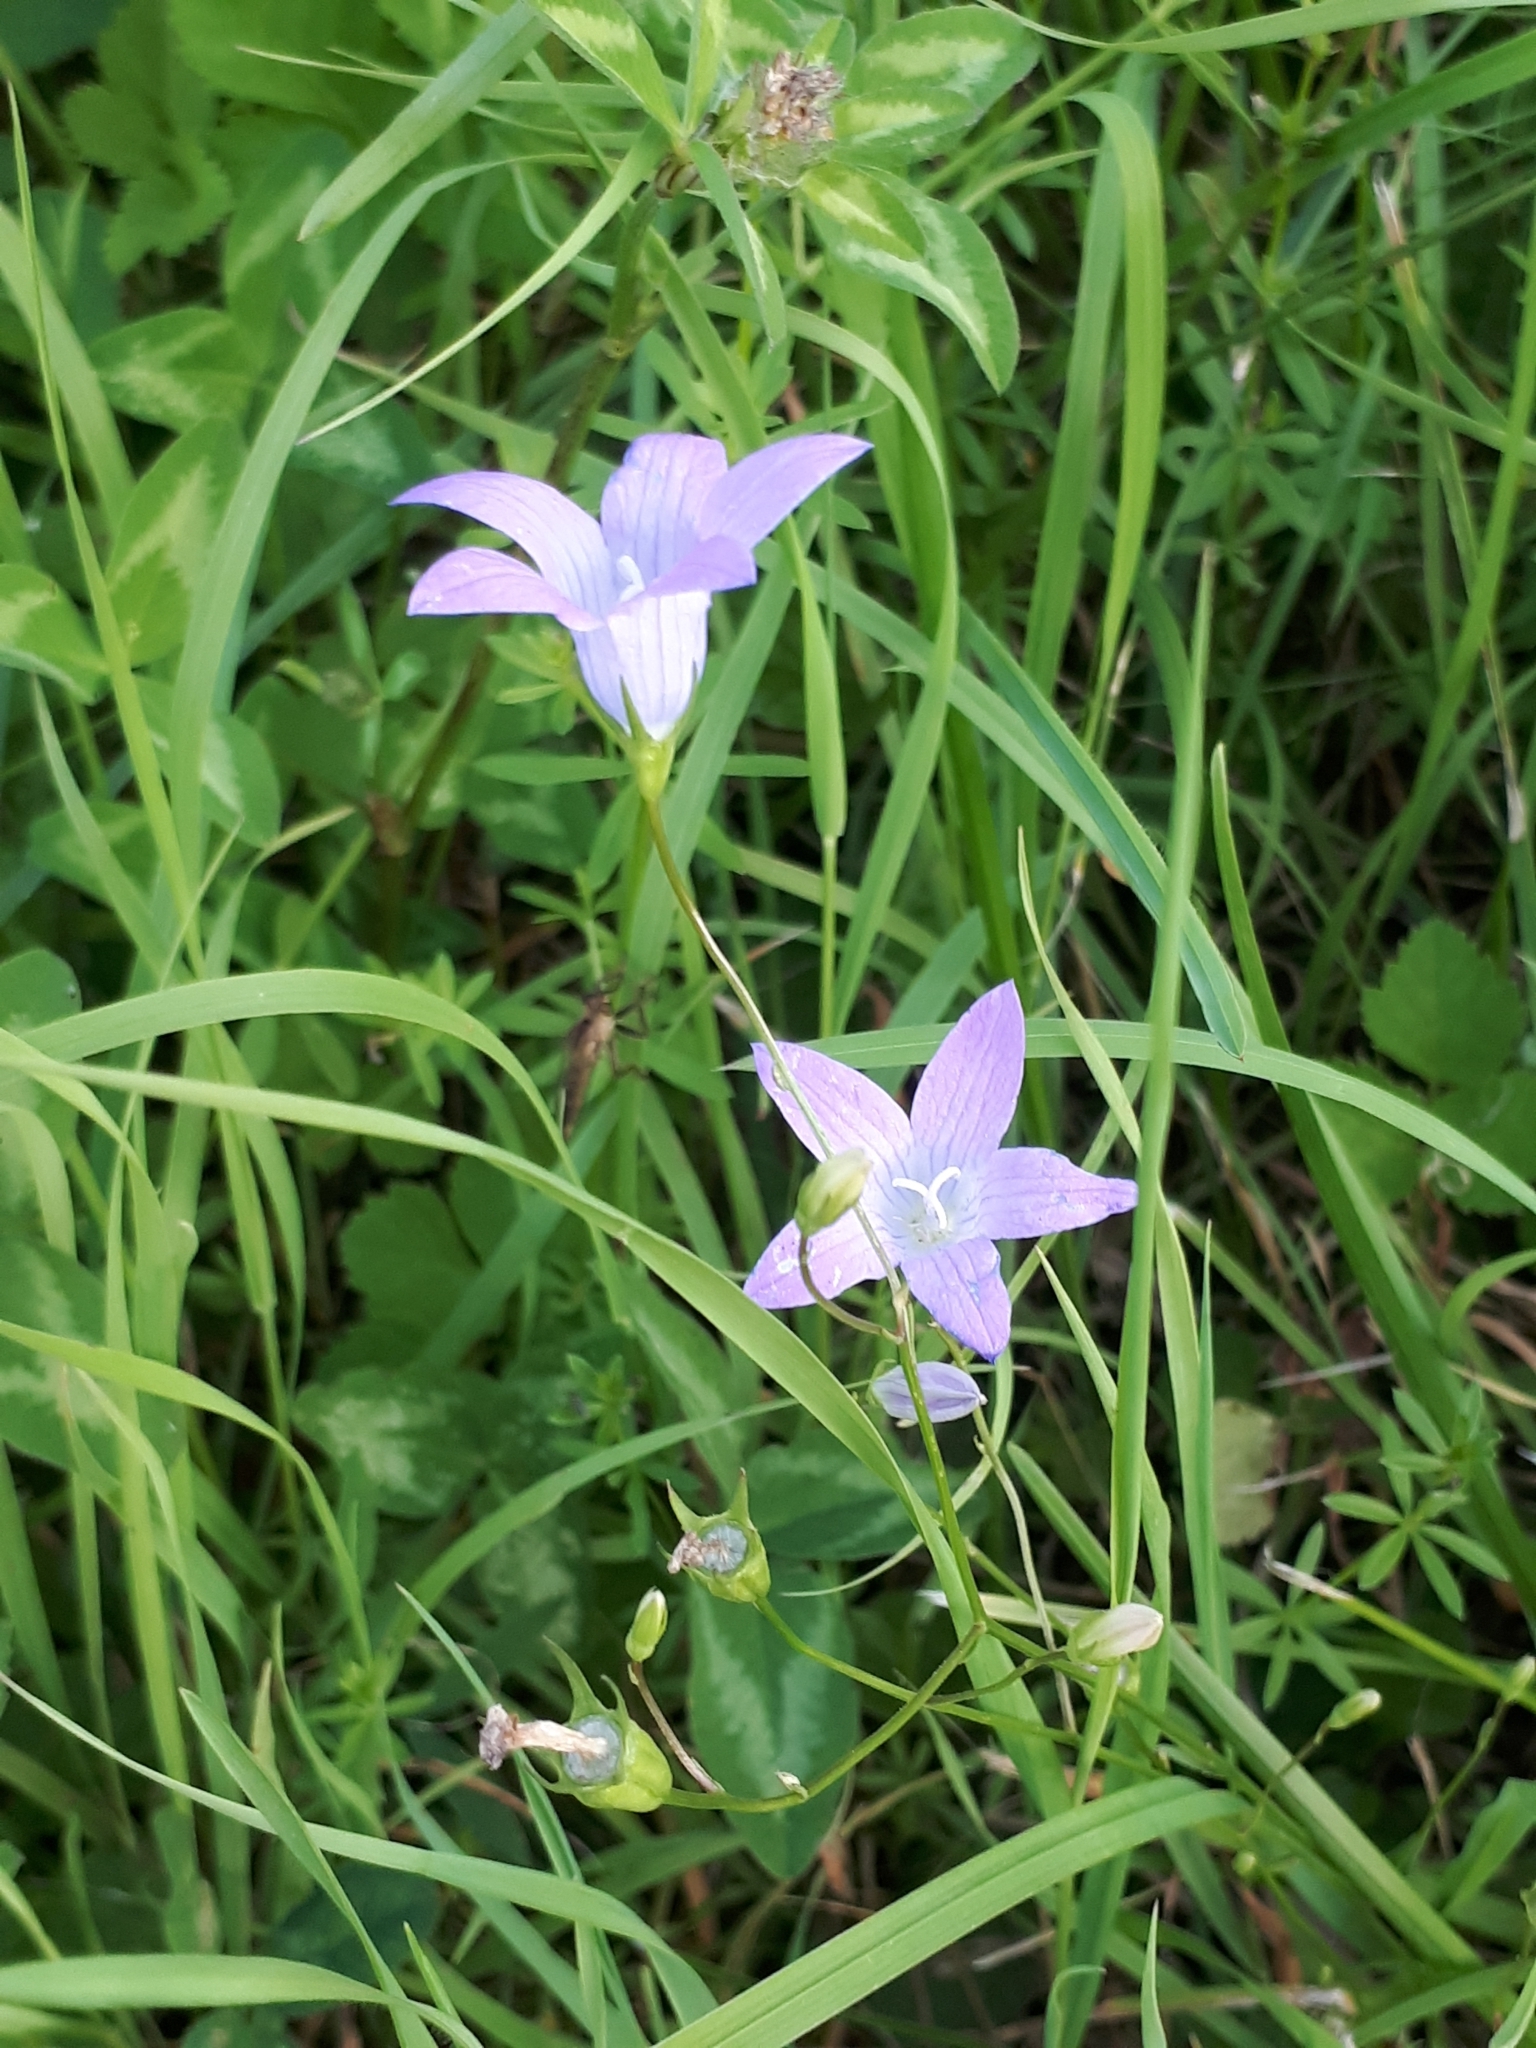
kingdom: Plantae
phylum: Tracheophyta
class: Magnoliopsida
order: Asterales
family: Campanulaceae
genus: Campanula
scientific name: Campanula patula
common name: Spreading bellflower
